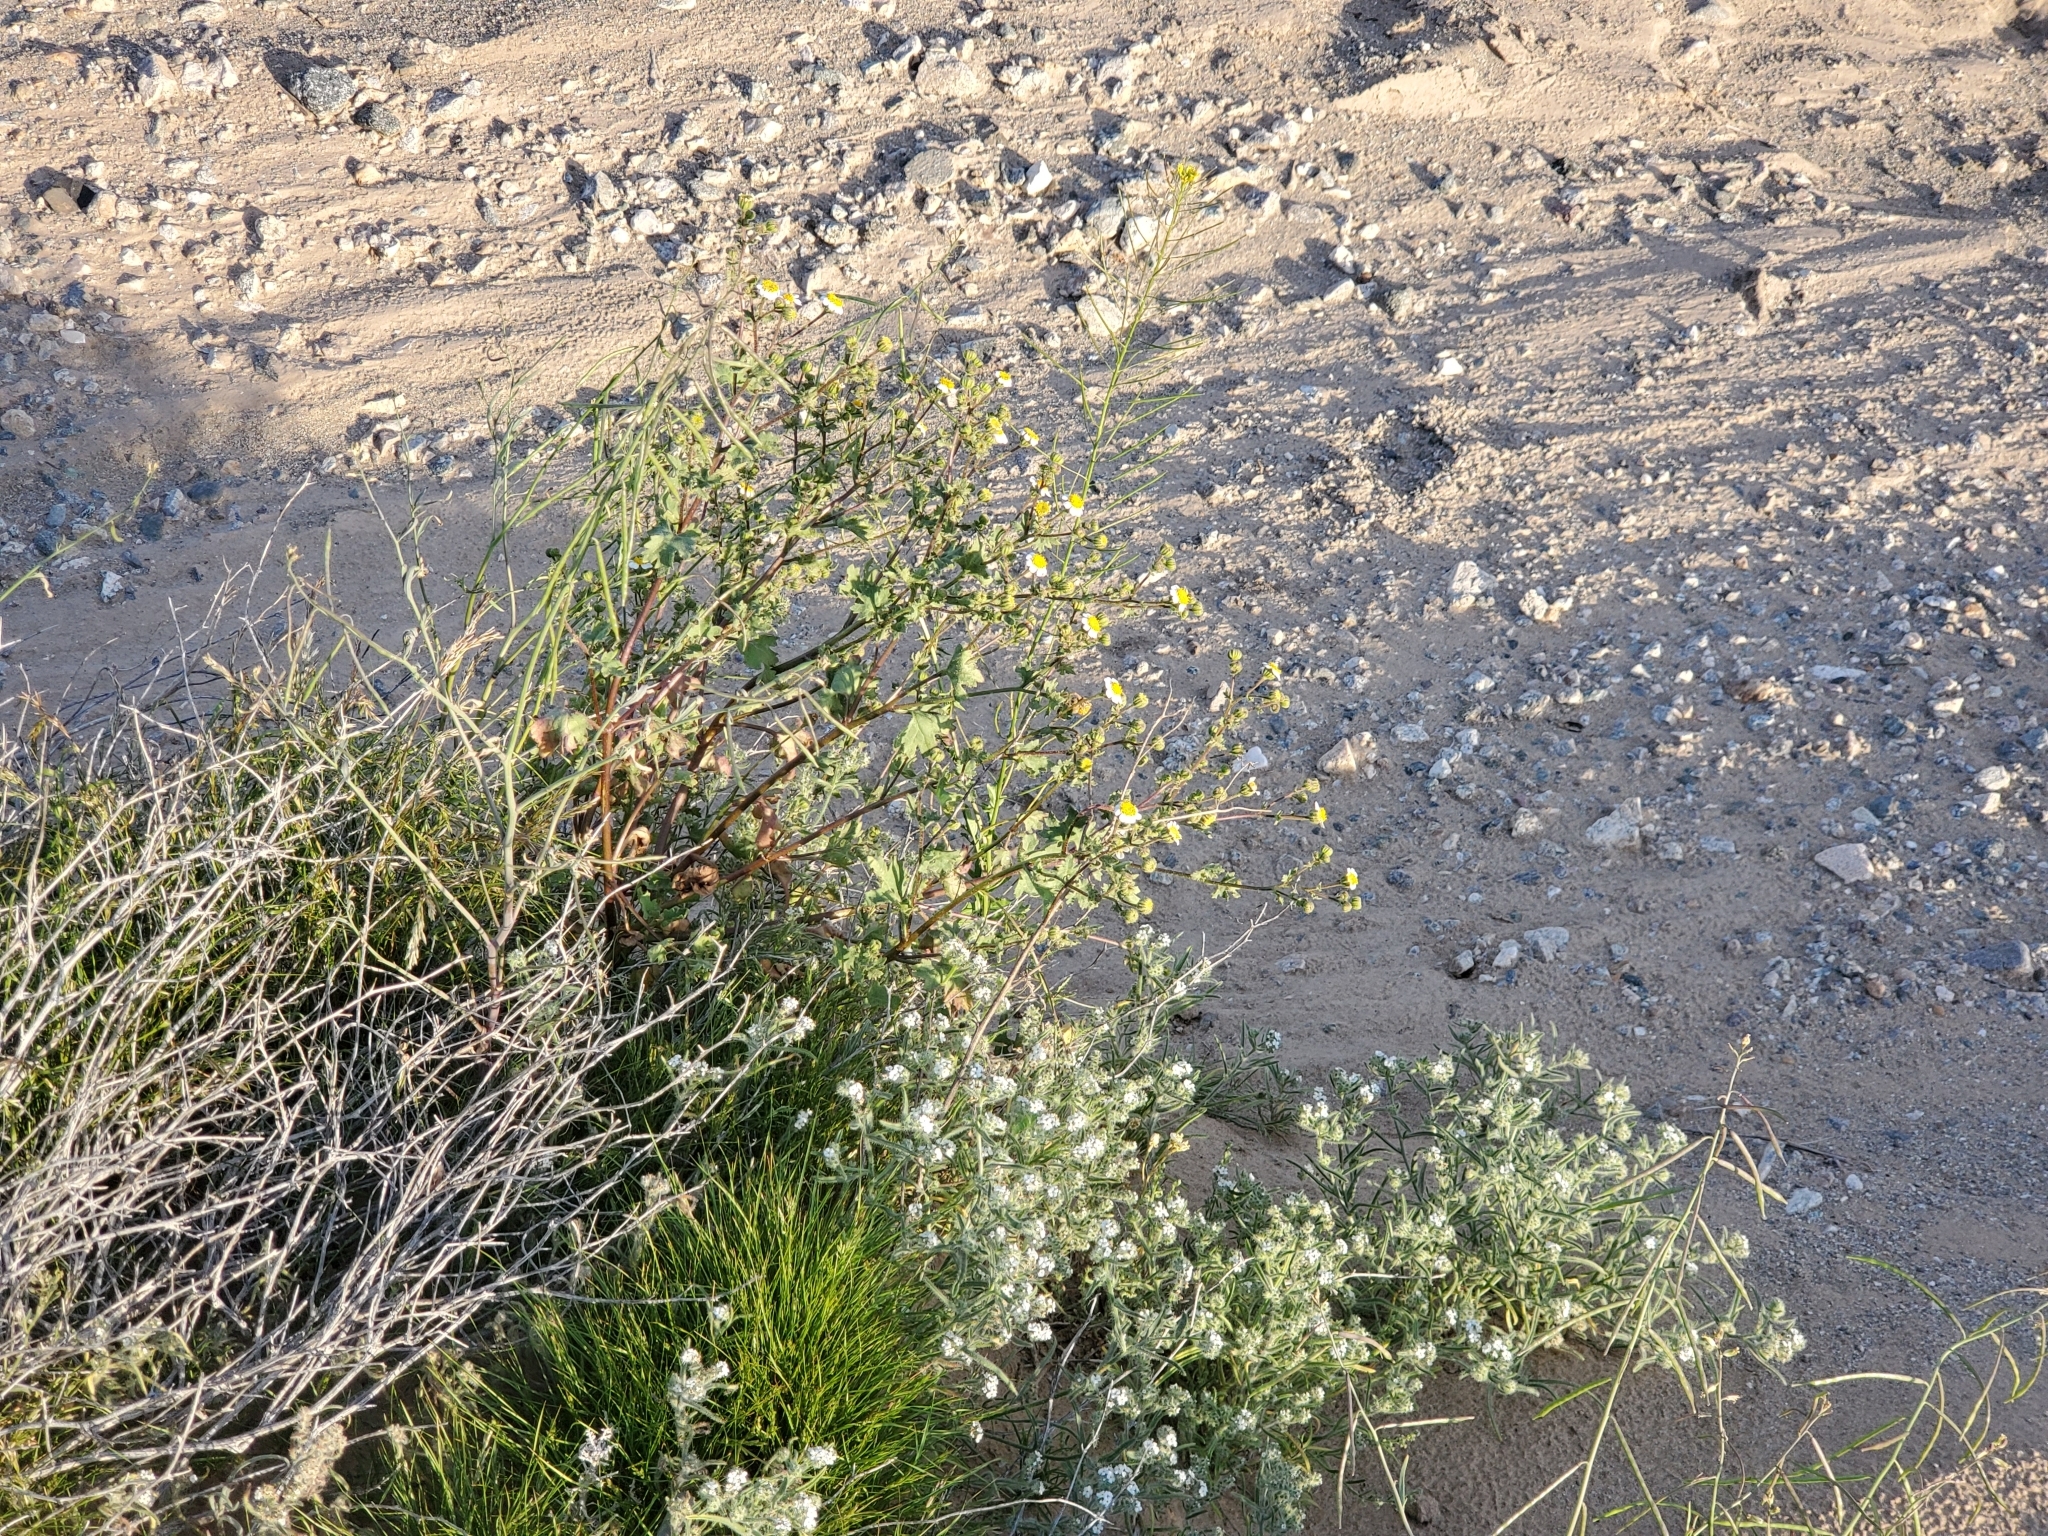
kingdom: Plantae
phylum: Tracheophyta
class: Magnoliopsida
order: Asterales
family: Asteraceae
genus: Laphamia
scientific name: Laphamia emoryi
